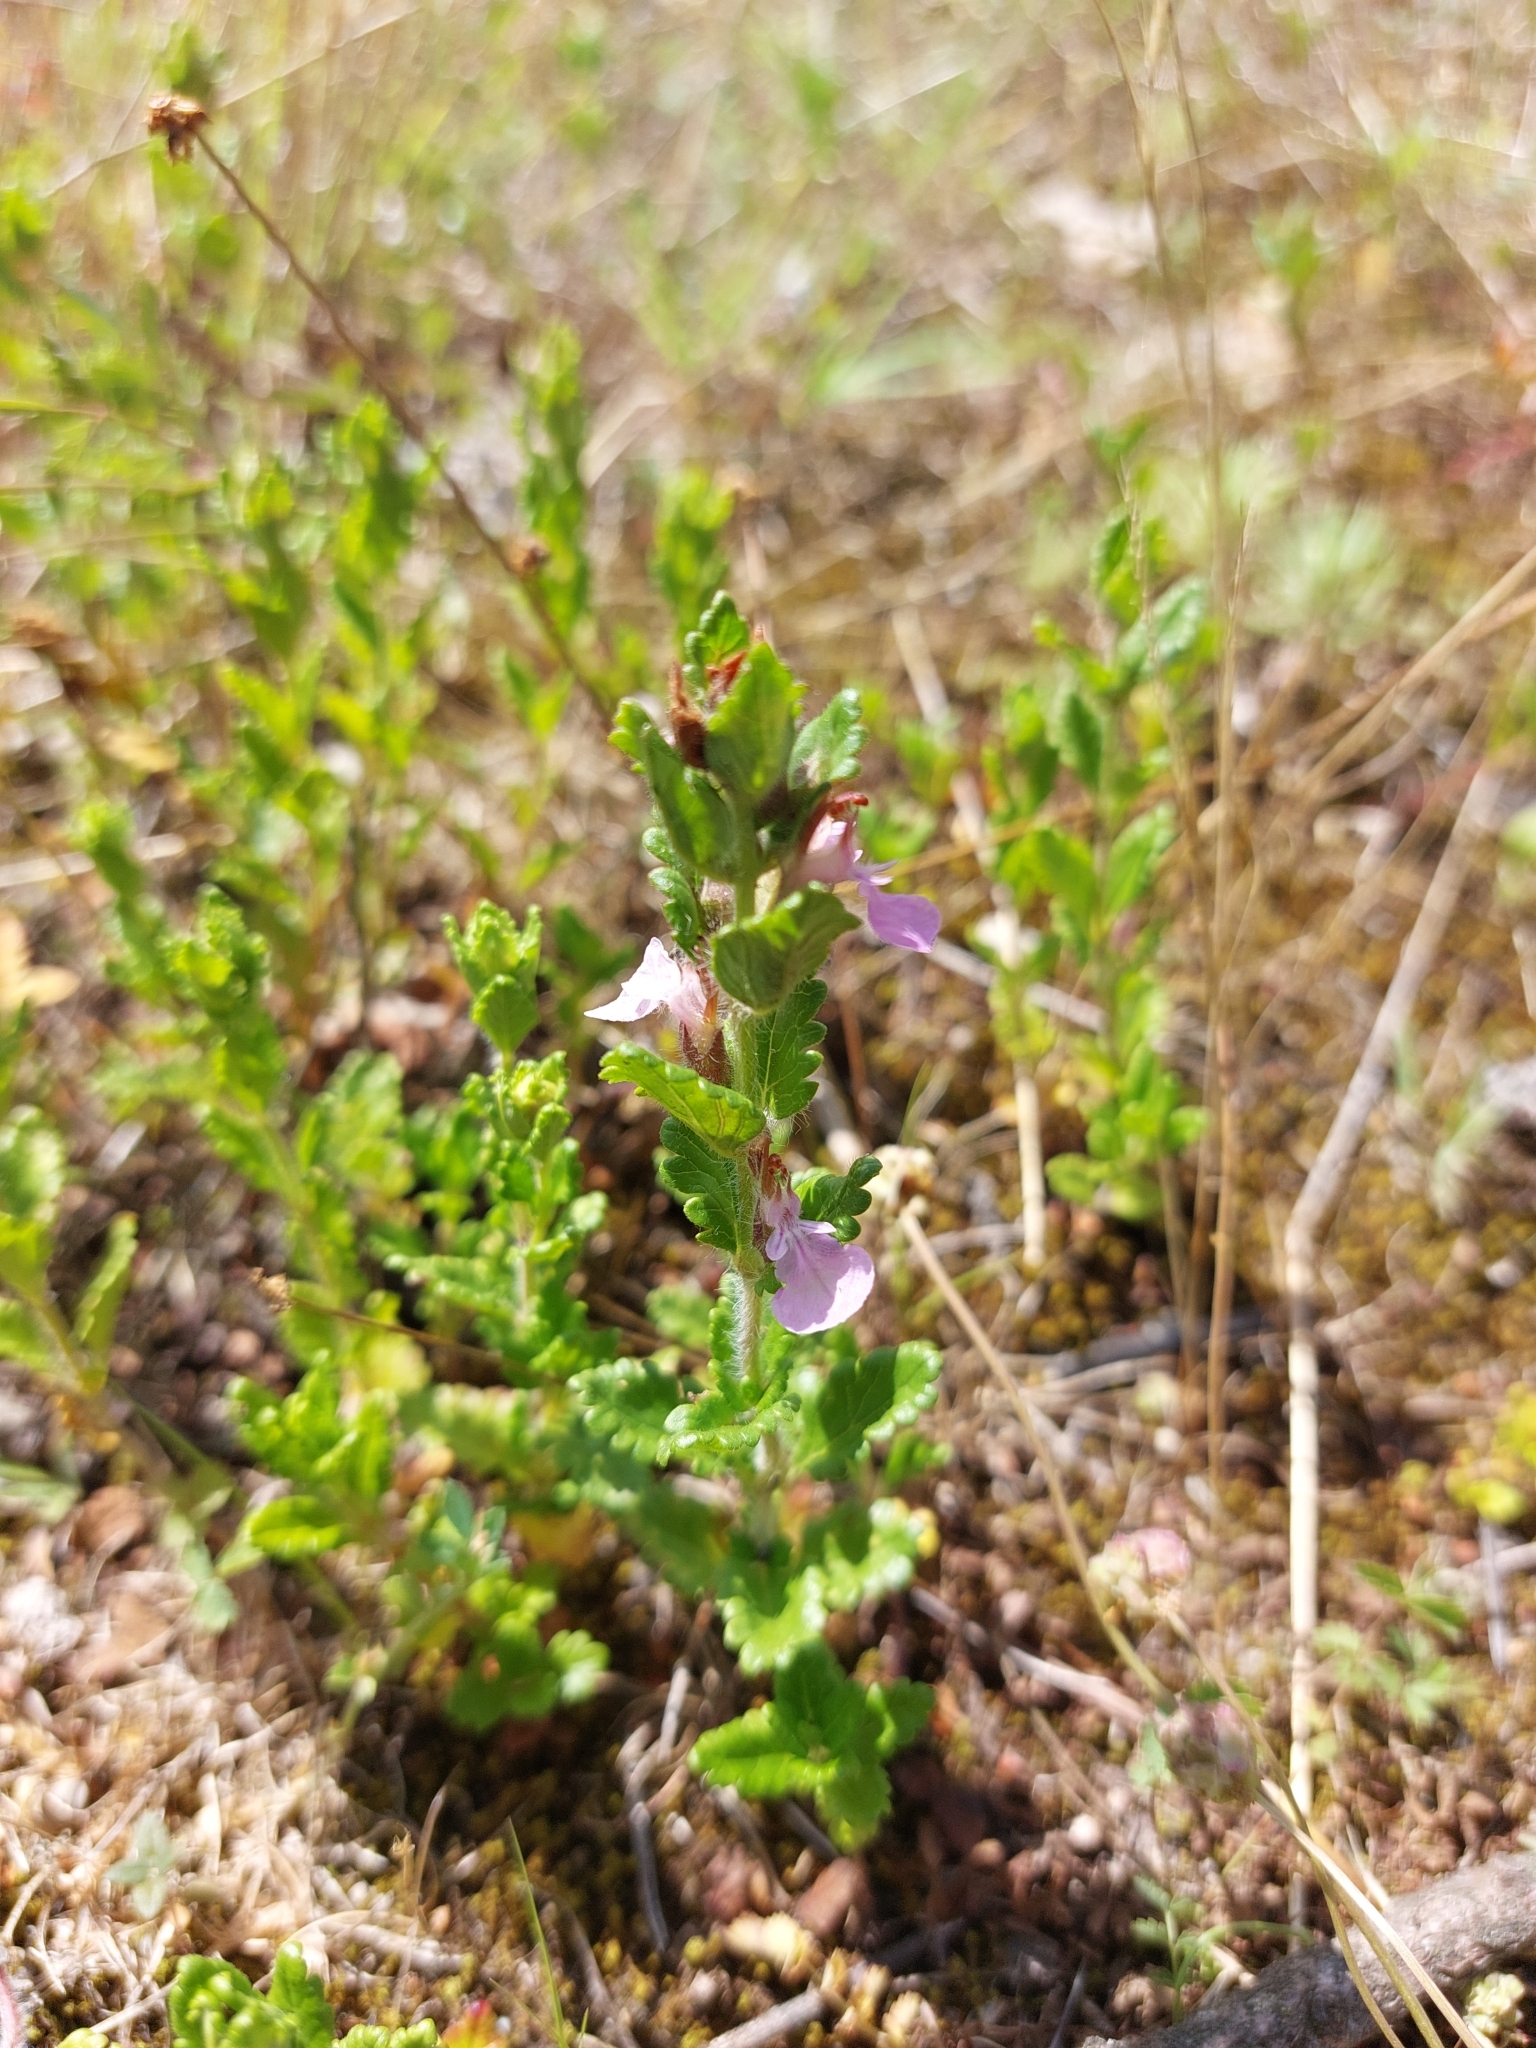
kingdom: Plantae
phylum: Tracheophyta
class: Magnoliopsida
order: Lamiales
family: Lamiaceae
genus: Teucrium
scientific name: Teucrium chamaedrys
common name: Wall germander
